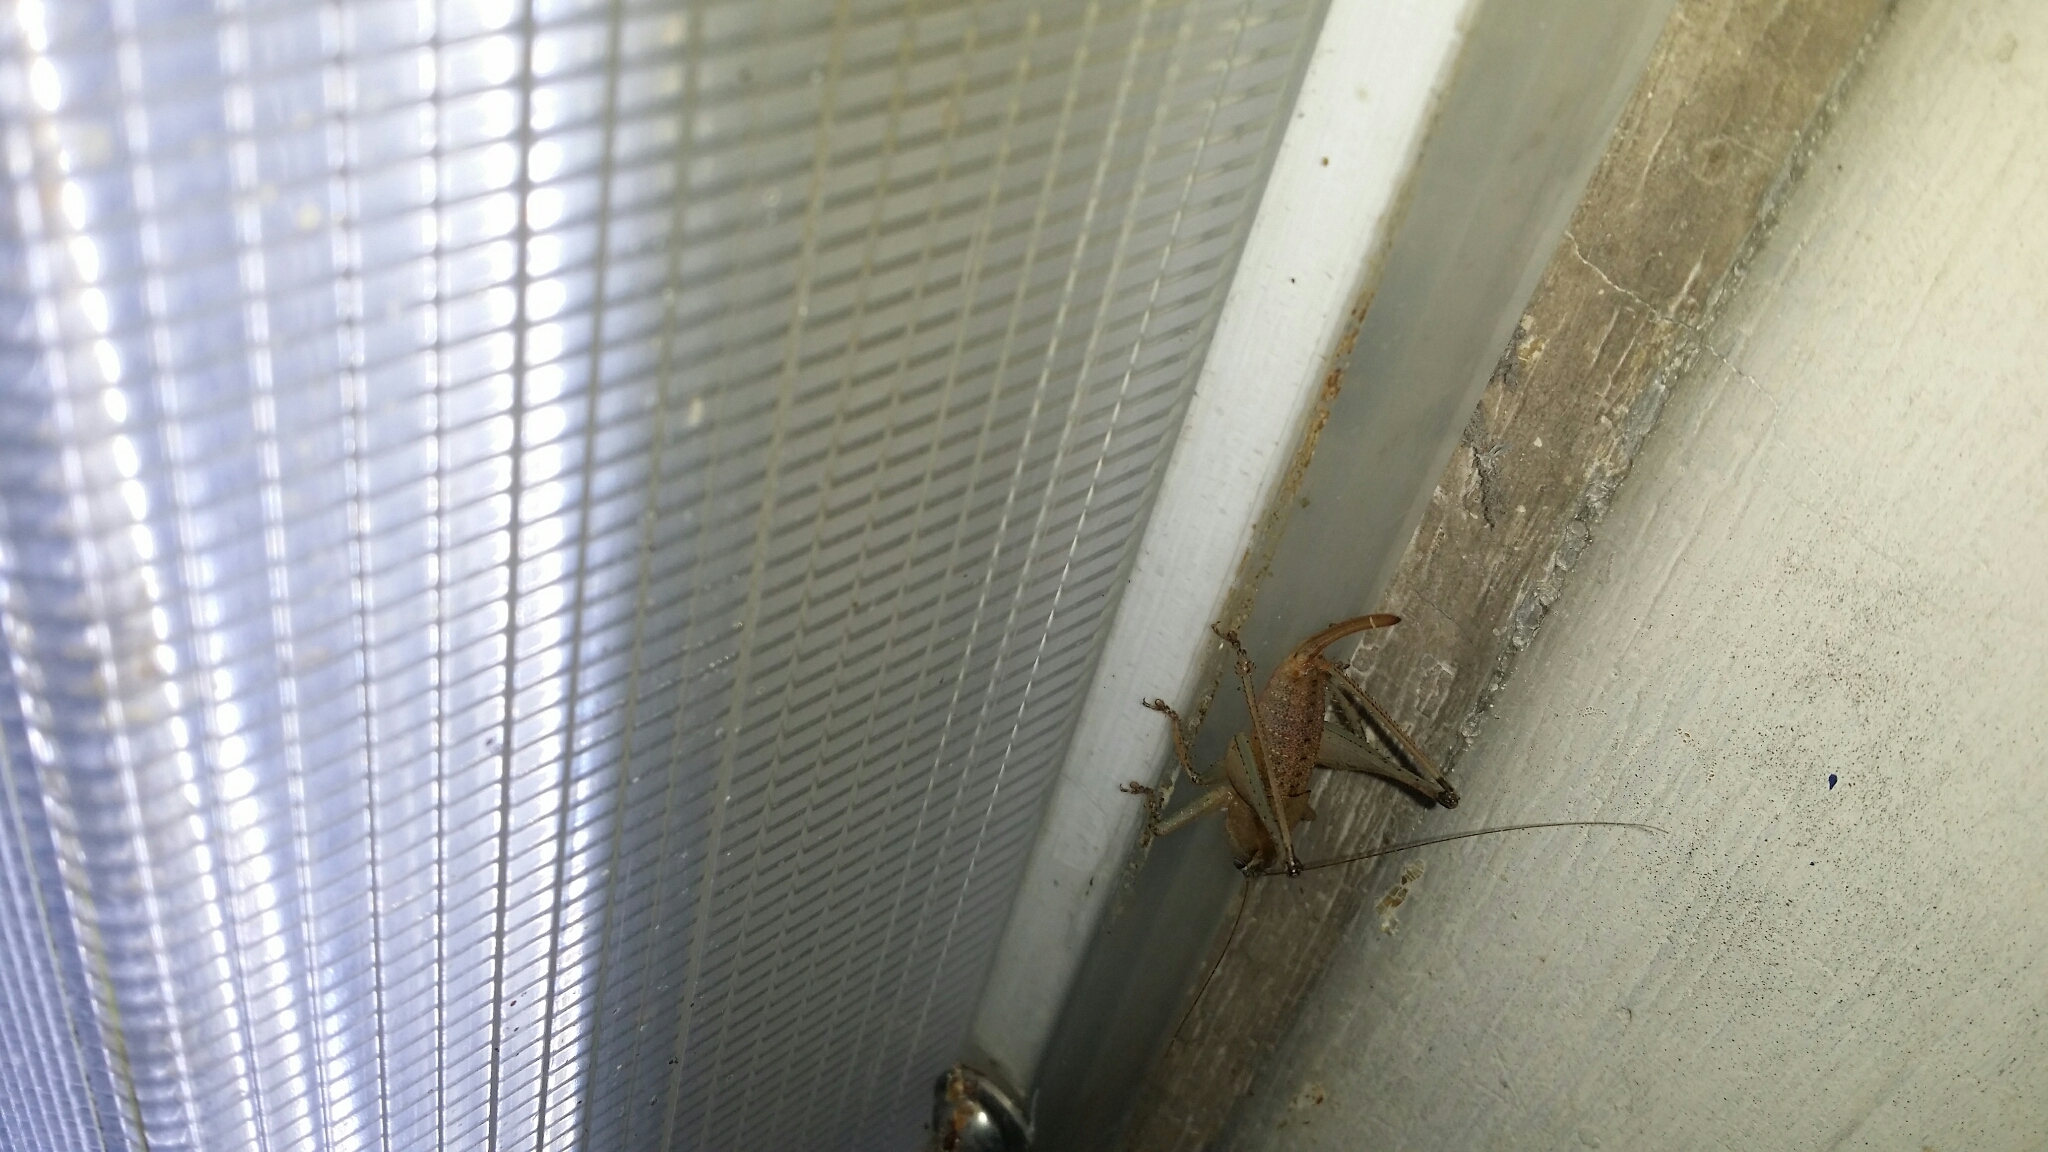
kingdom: Animalia
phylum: Arthropoda
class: Insecta
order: Orthoptera
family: Tettigoniidae
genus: Requena
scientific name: Requena verticalis
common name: Common western requena
